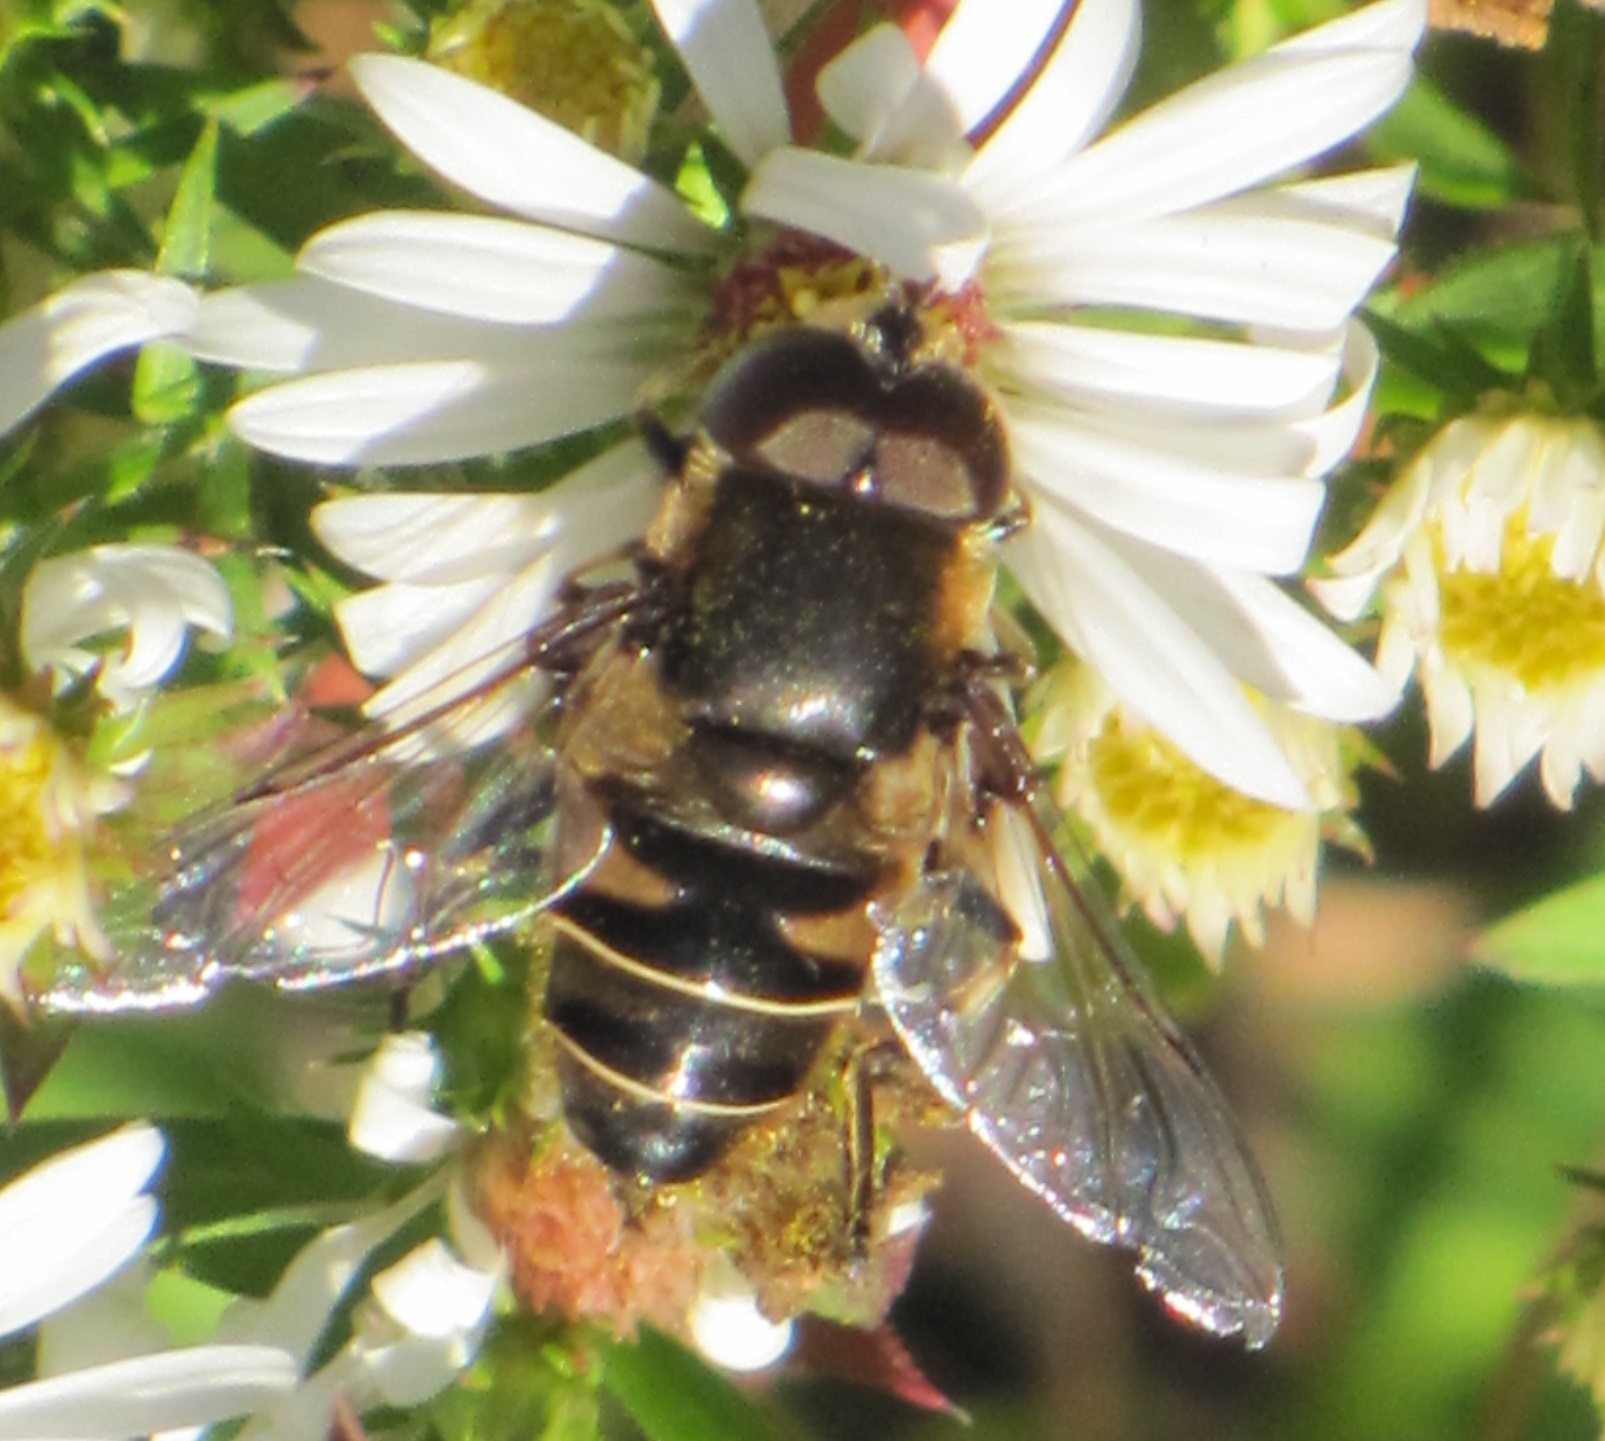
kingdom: Animalia
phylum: Arthropoda
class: Insecta
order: Diptera
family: Syrphidae
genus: Eristalis
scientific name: Eristalis dimidiata
